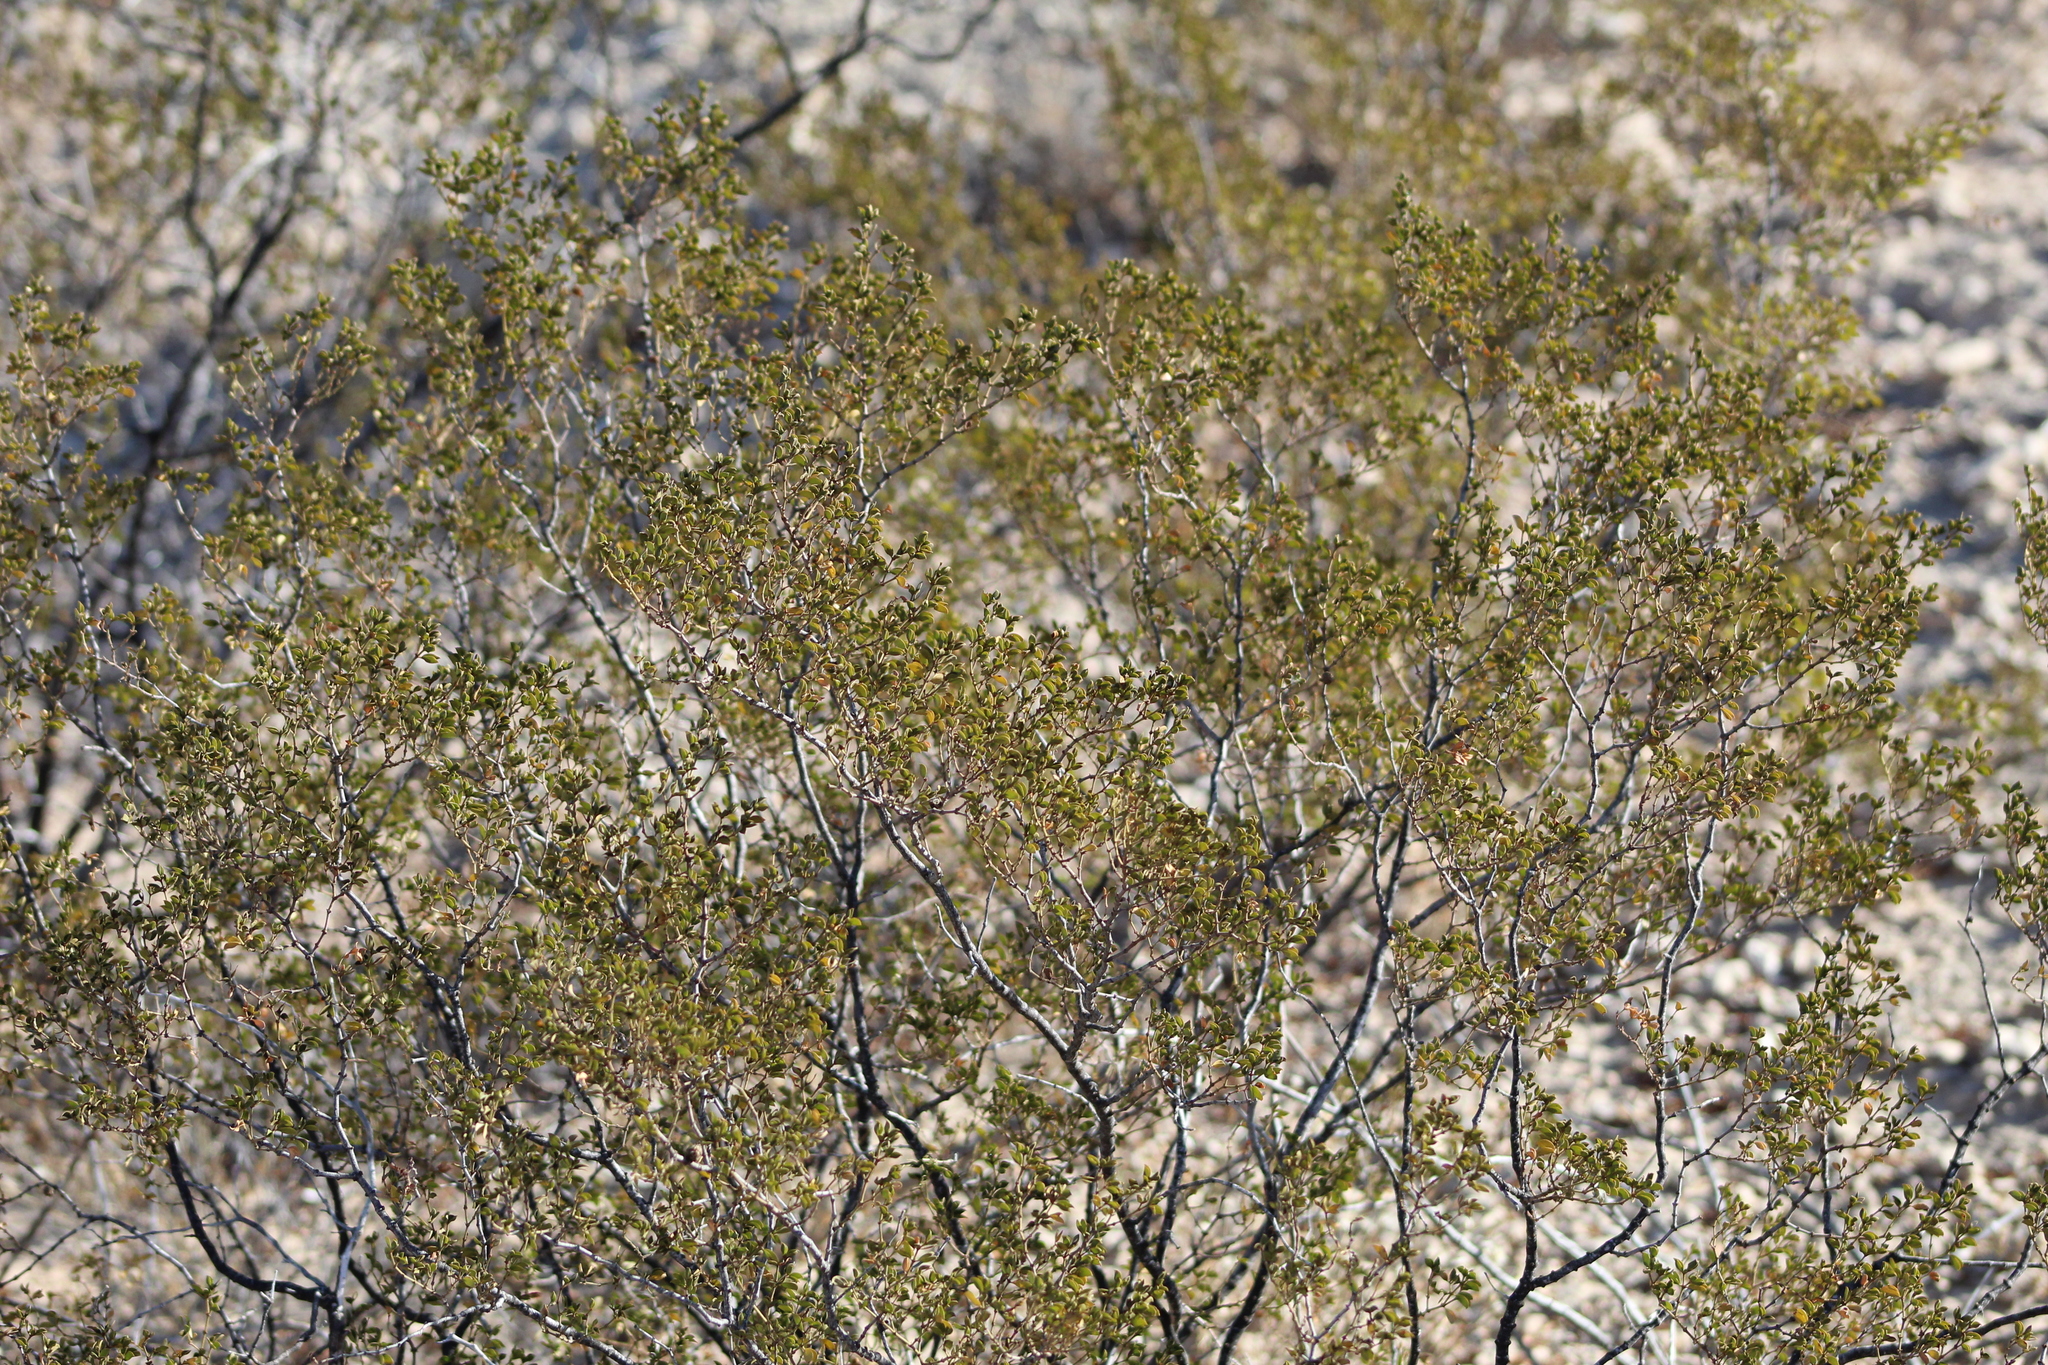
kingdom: Plantae
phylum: Tracheophyta
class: Magnoliopsida
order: Zygophyllales
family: Zygophyllaceae
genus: Larrea
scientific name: Larrea tridentata
